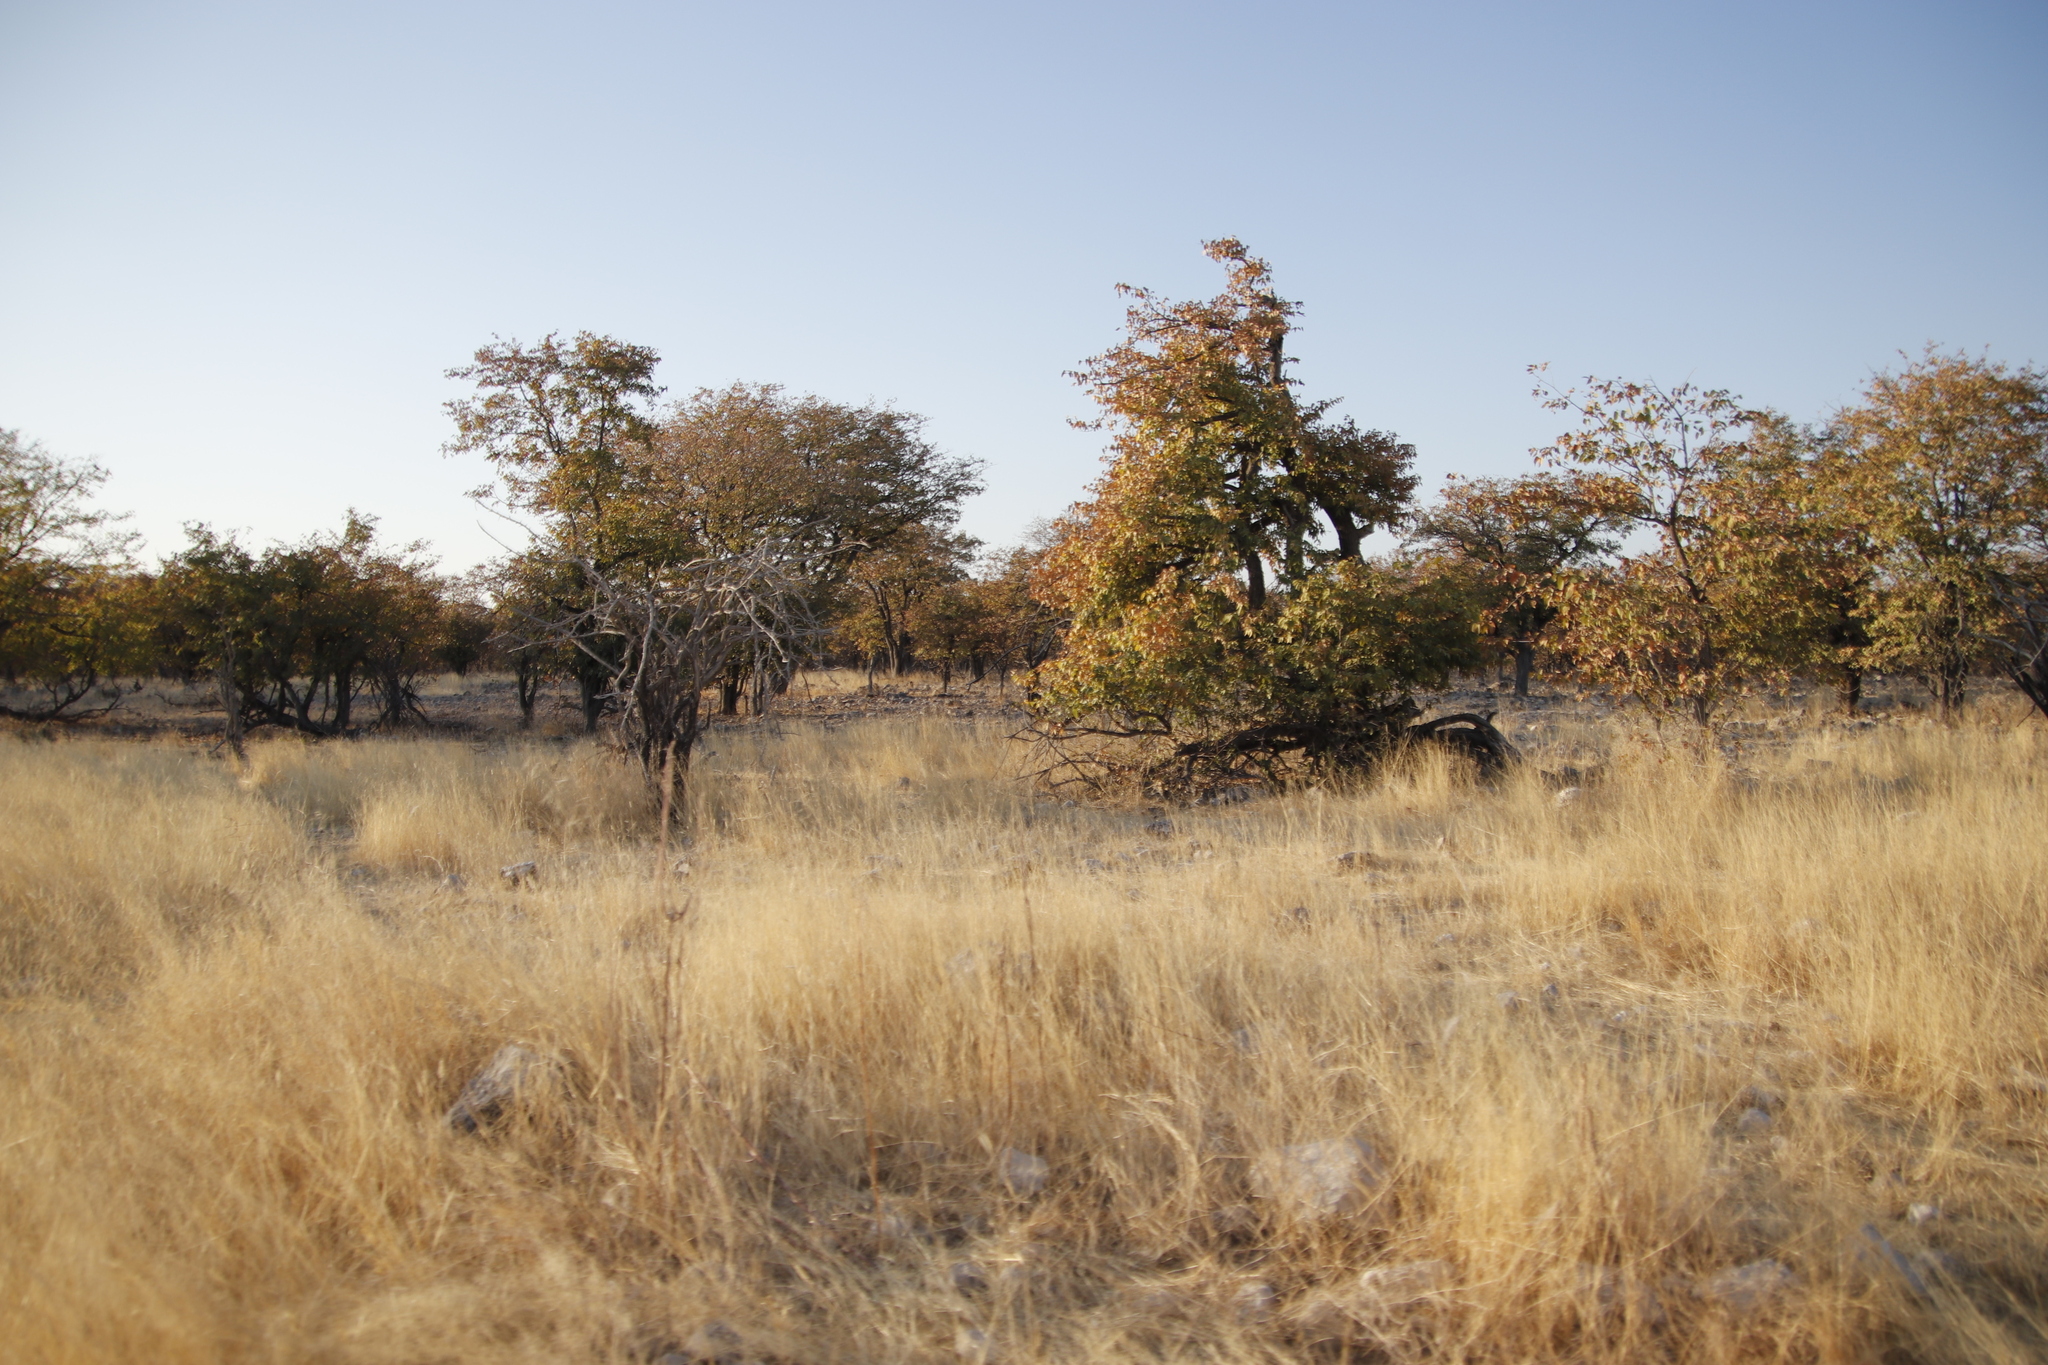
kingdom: Plantae
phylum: Tracheophyta
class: Magnoliopsida
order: Fabales
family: Fabaceae
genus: Colophospermum
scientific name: Colophospermum mopane
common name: Mopane
